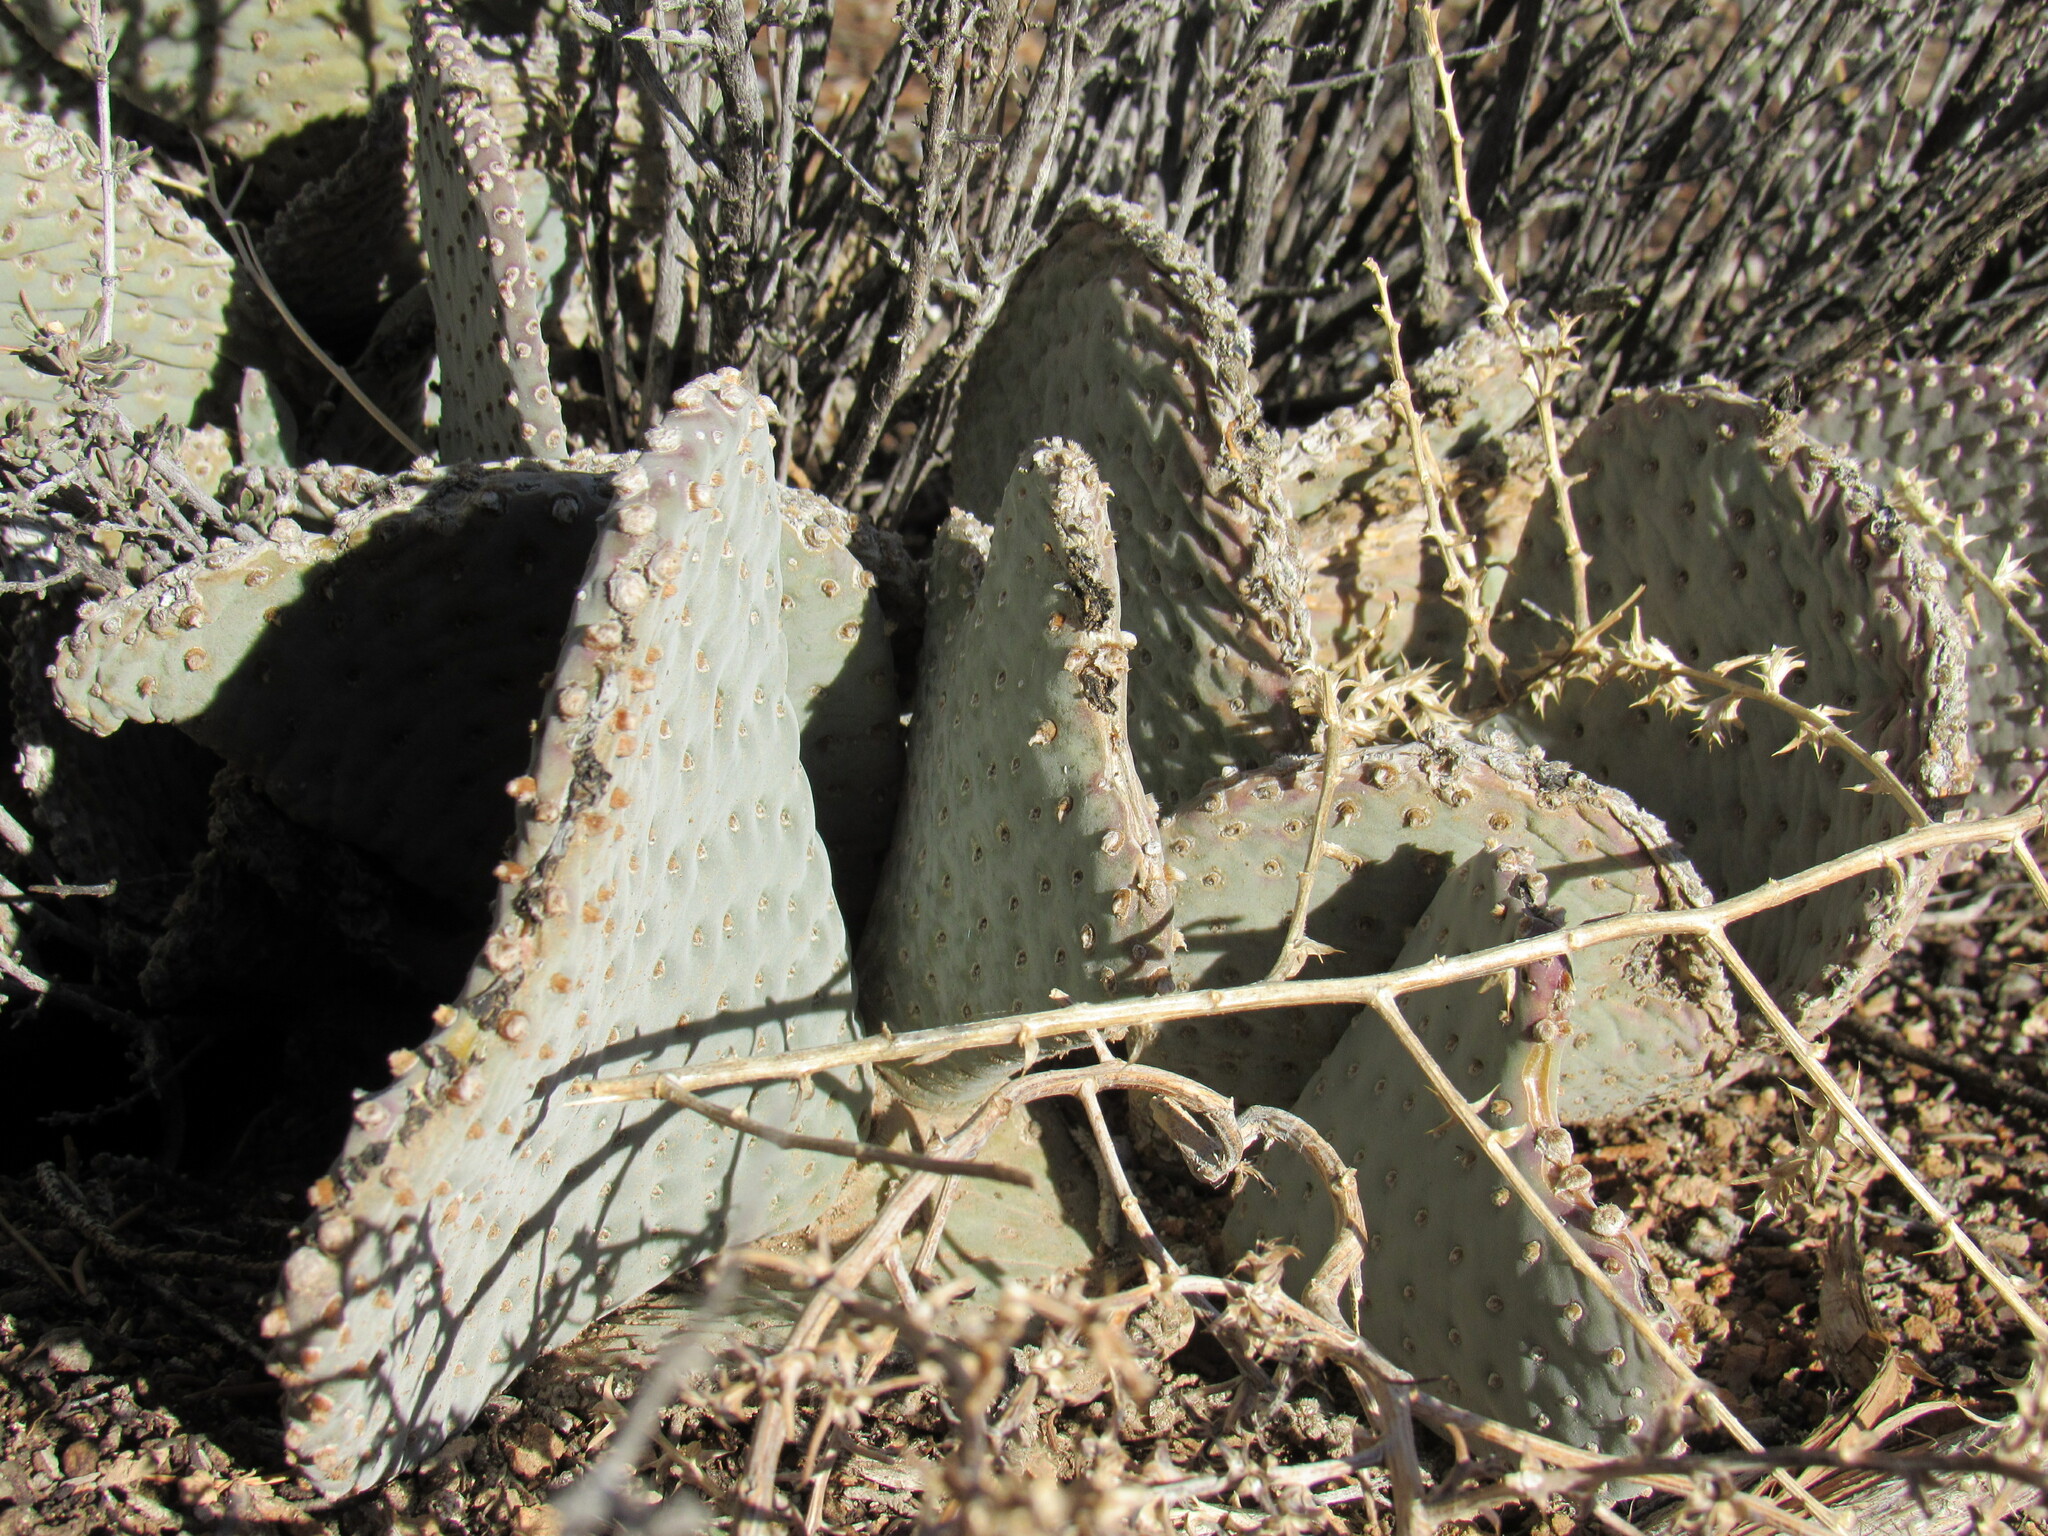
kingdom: Plantae
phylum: Tracheophyta
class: Magnoliopsida
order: Caryophyllales
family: Cactaceae
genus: Opuntia
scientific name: Opuntia basilaris
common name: Beavertail prickly-pear
